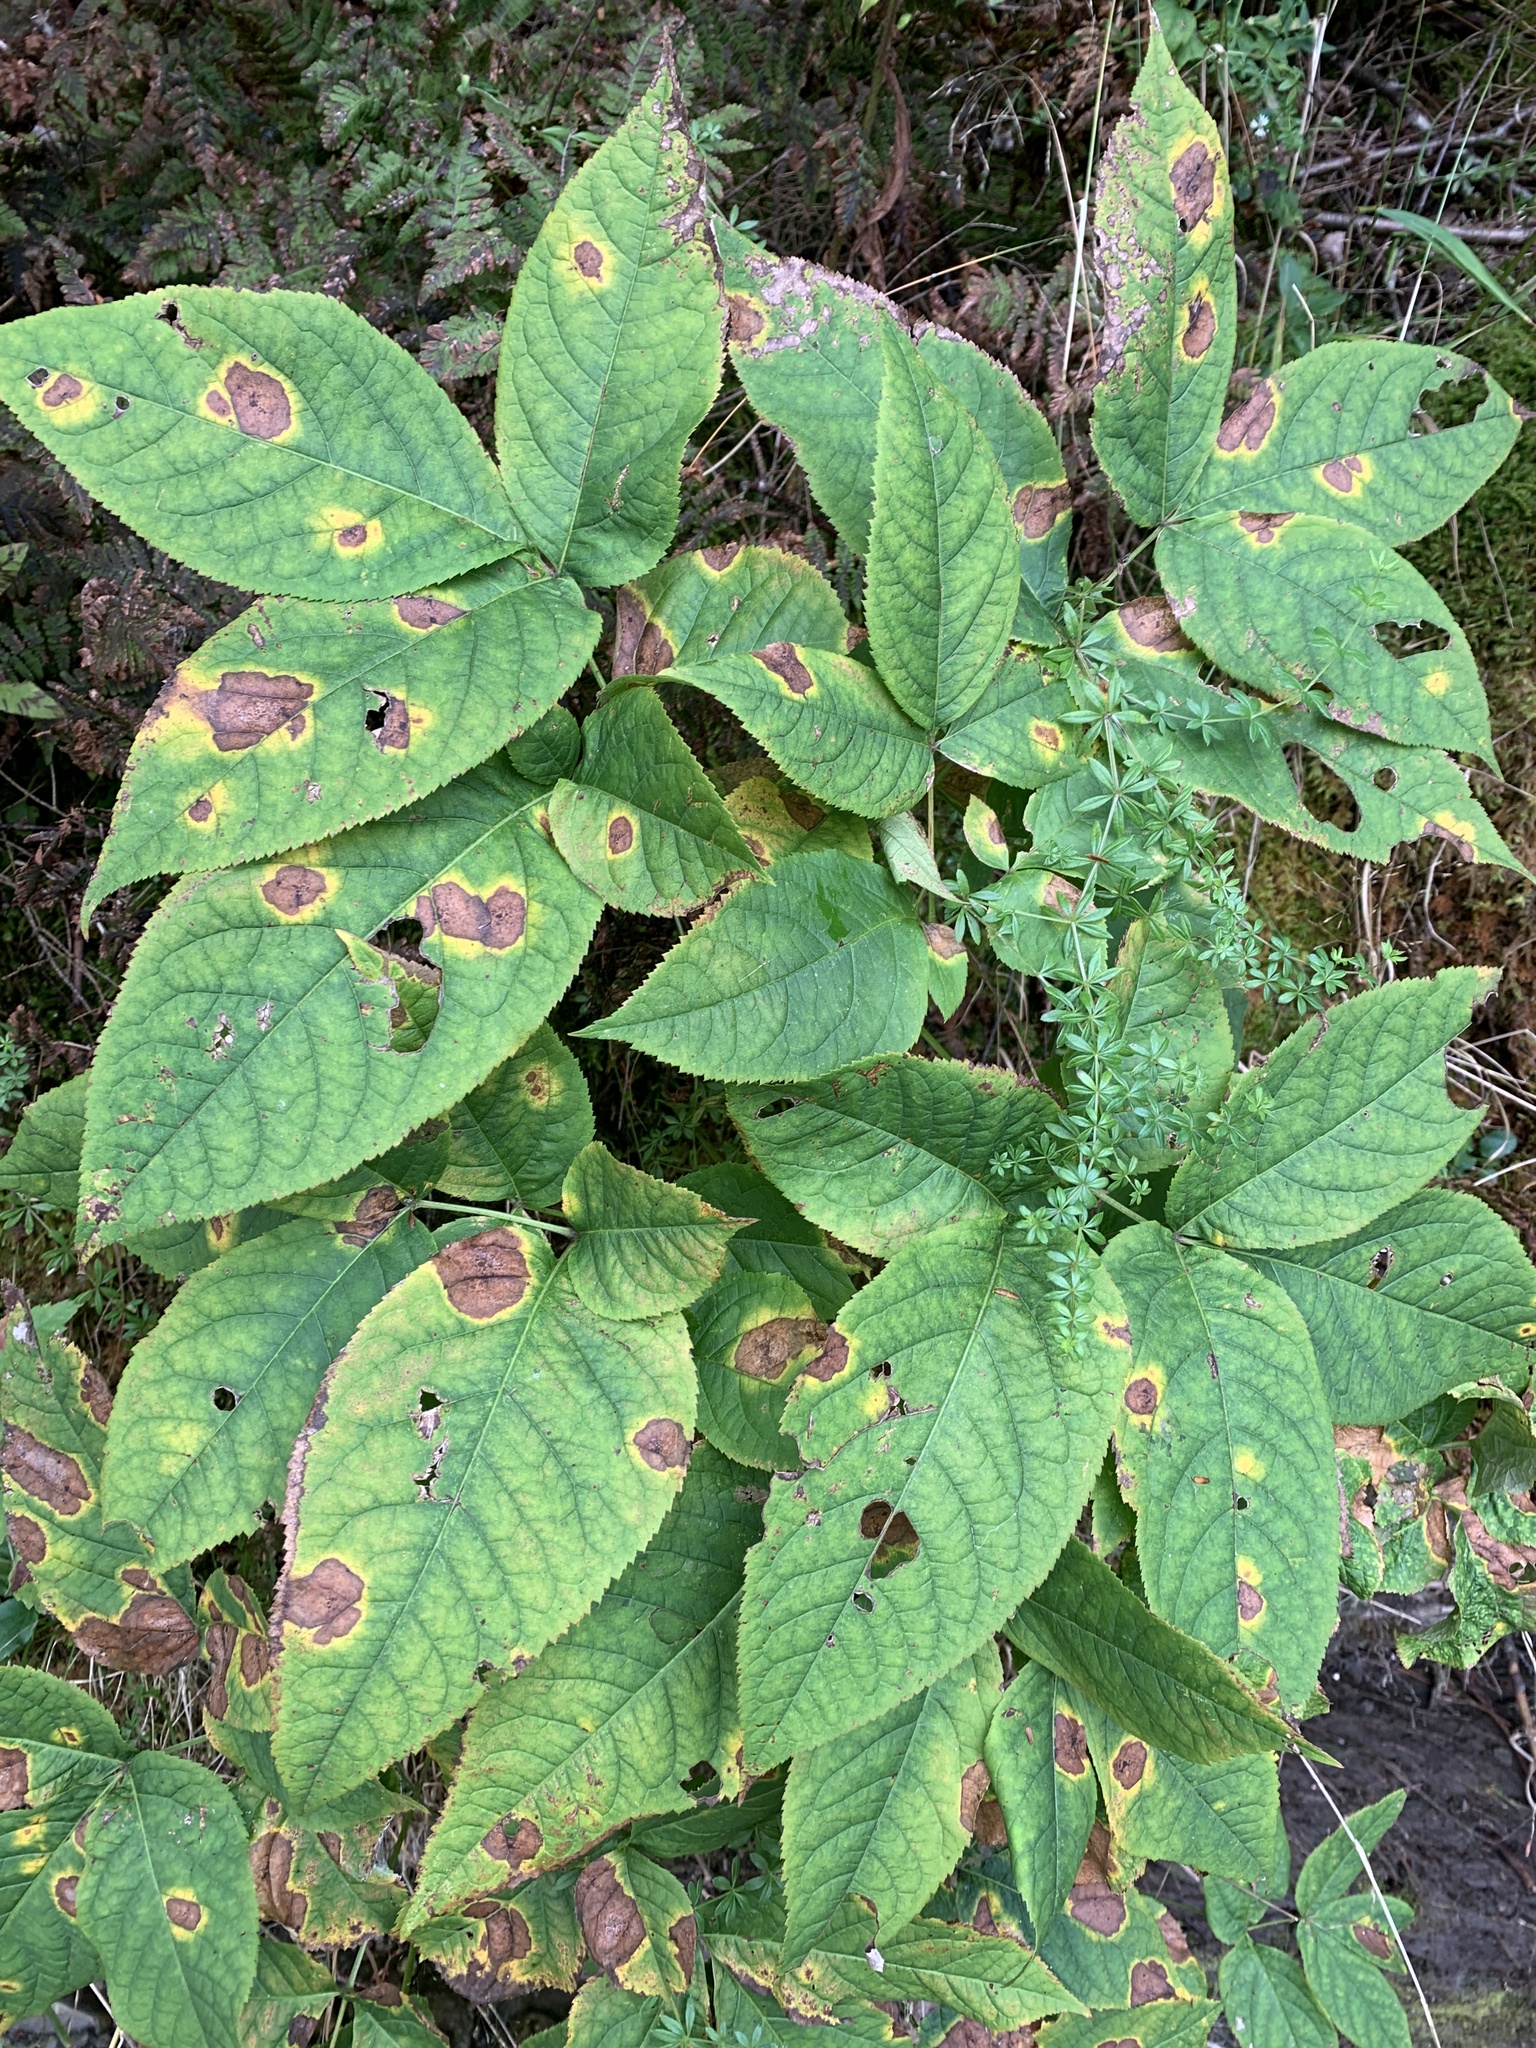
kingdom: Plantae
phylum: Tracheophyta
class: Magnoliopsida
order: Apiales
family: Araliaceae
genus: Aralia
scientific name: Aralia nudicaulis
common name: Wild sarsaparilla
